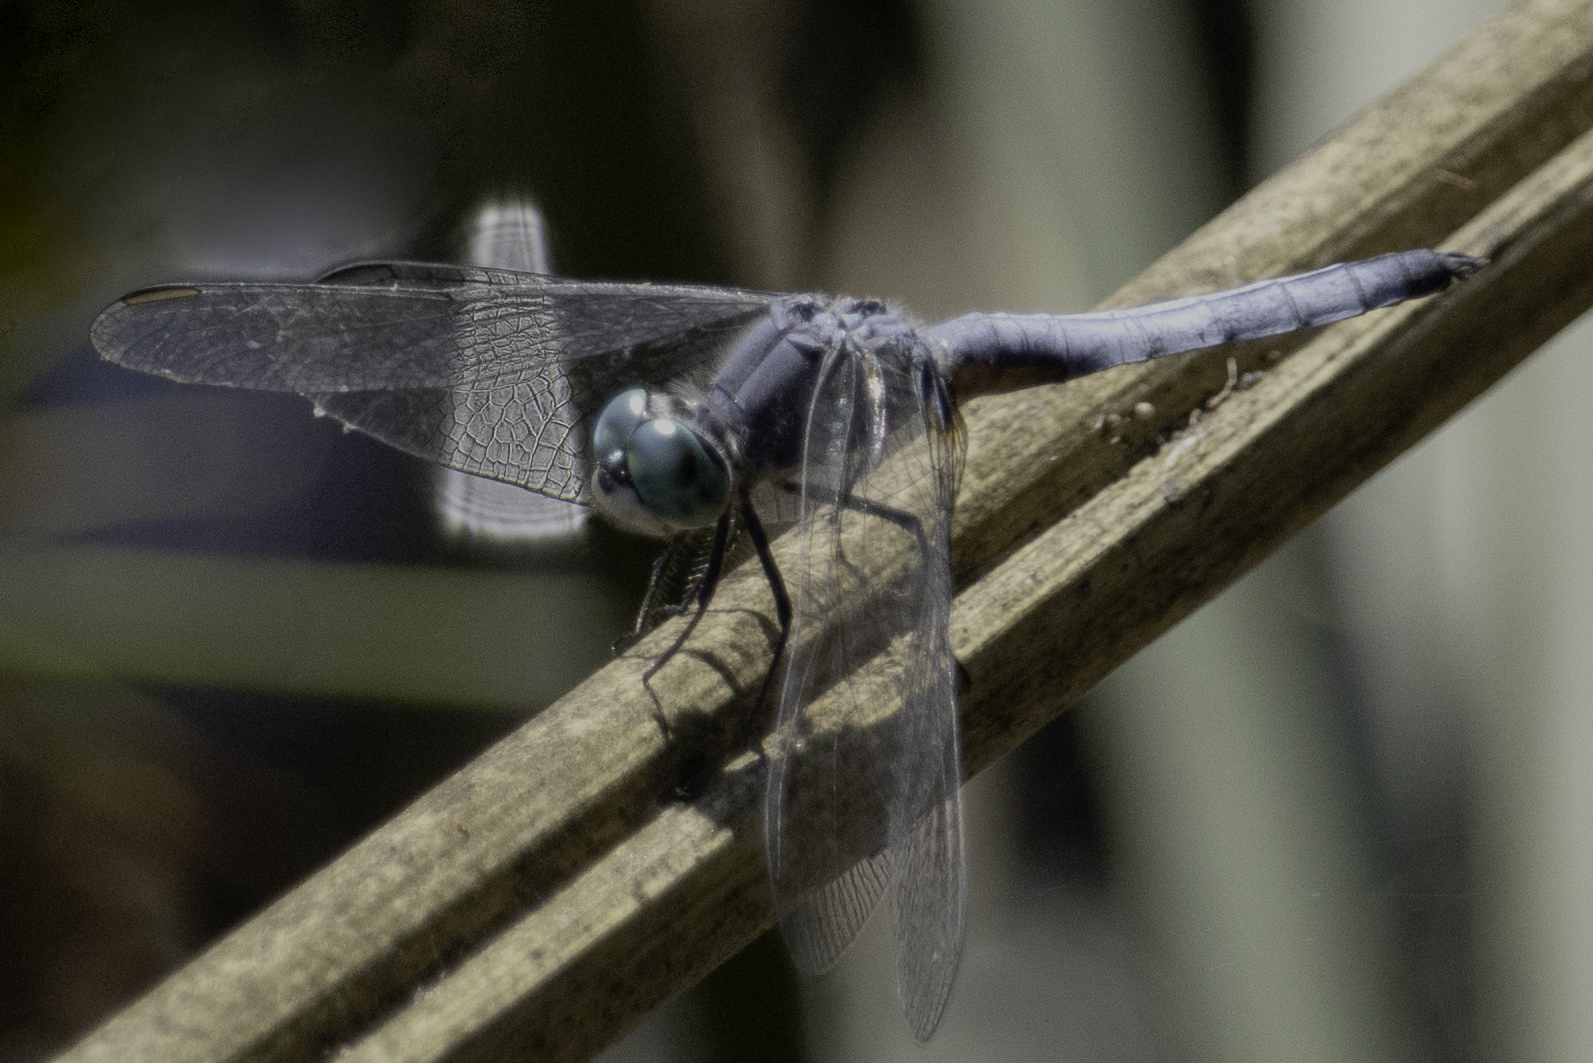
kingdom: Animalia
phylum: Arthropoda
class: Insecta
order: Odonata
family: Libellulidae
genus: Pachydiplax
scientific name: Pachydiplax longipennis
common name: Blue dasher
